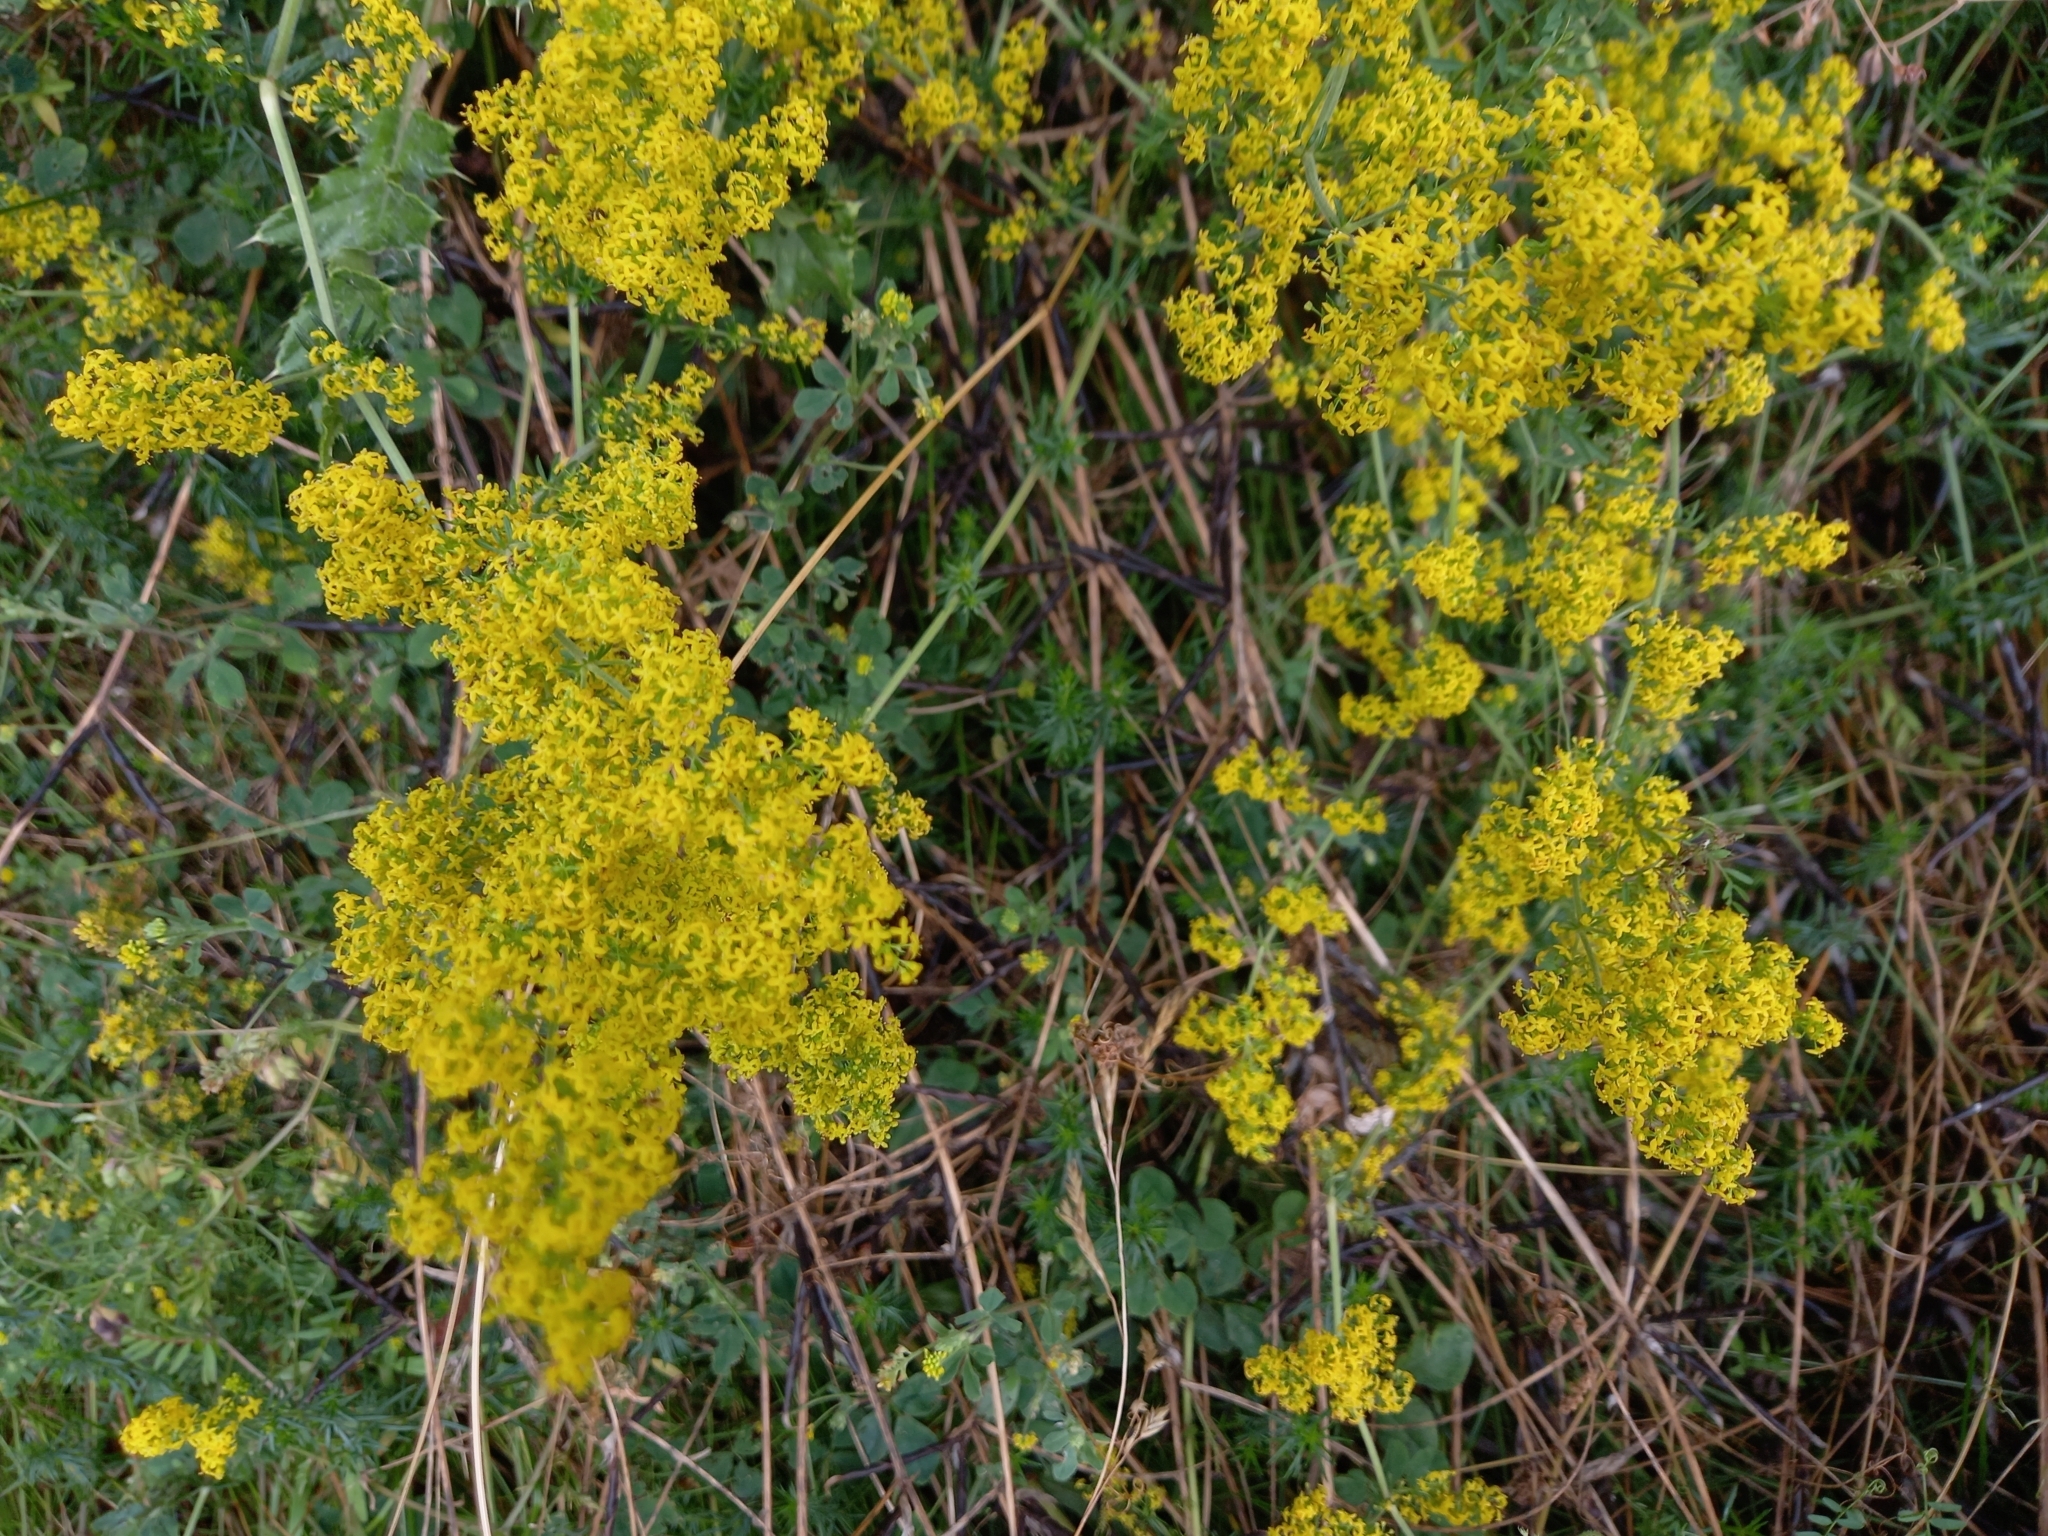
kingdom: Plantae
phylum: Tracheophyta
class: Magnoliopsida
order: Gentianales
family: Rubiaceae
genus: Galium
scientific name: Galium verum
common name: Lady's bedstraw
